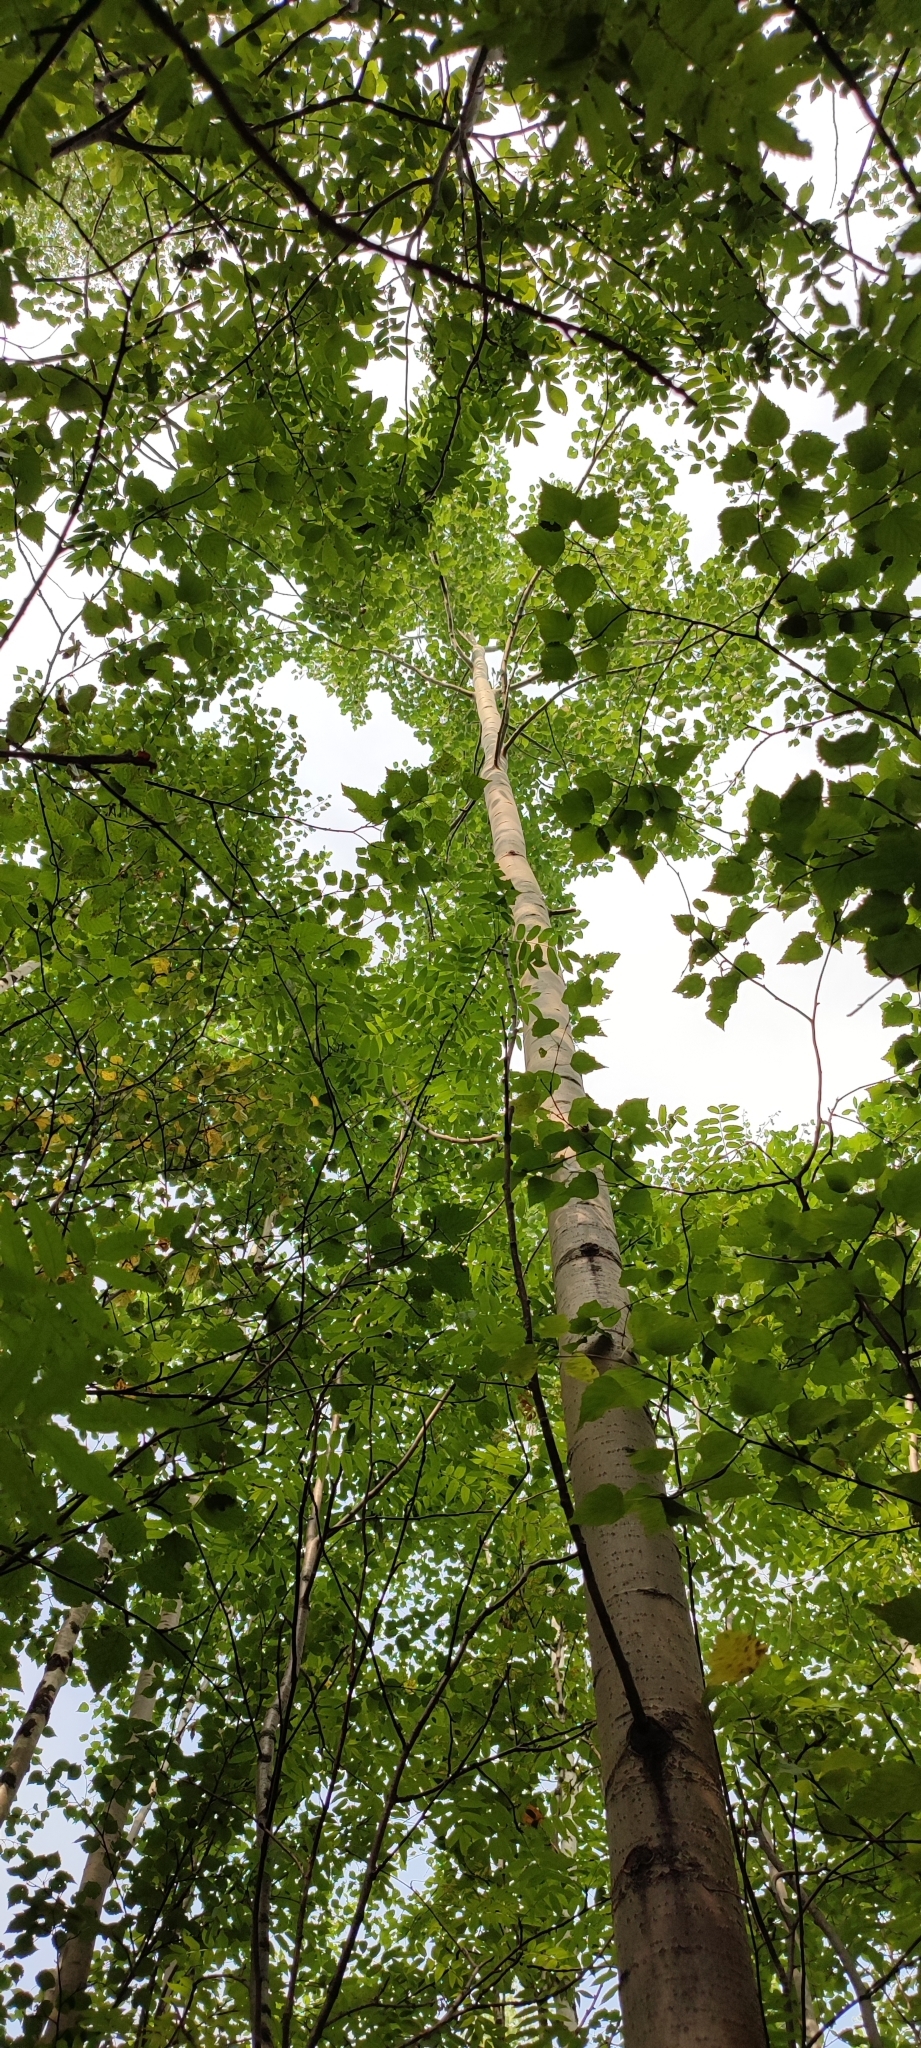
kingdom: Plantae
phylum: Tracheophyta
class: Magnoliopsida
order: Malpighiales
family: Salicaceae
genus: Populus
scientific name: Populus tremula
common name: European aspen
